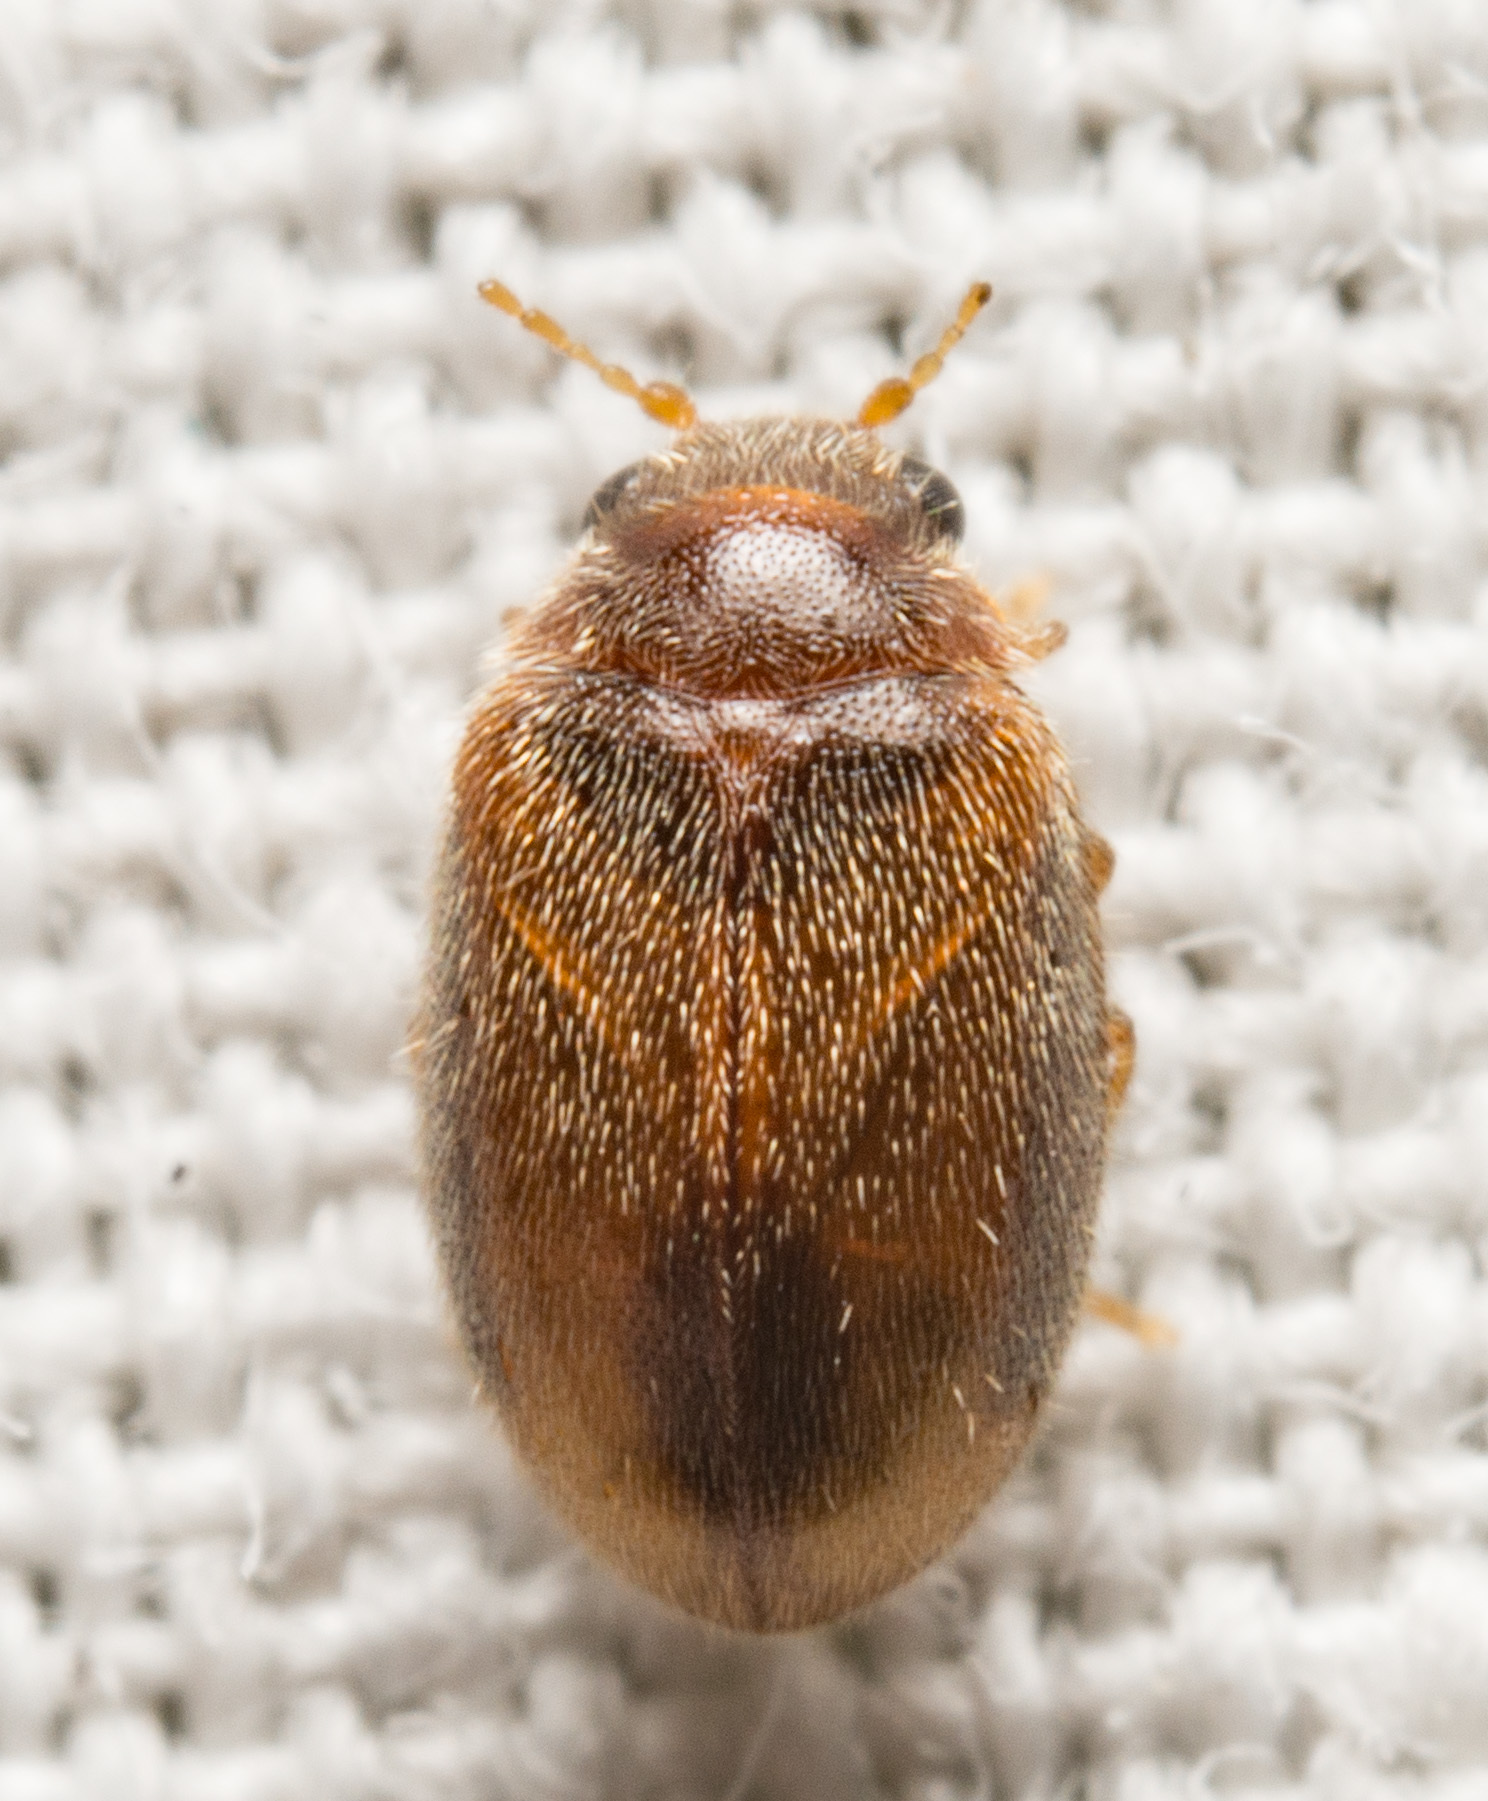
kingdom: Animalia
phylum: Arthropoda
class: Insecta
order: Coleoptera
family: Scirtidae
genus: Contacyphon
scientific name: Contacyphon
